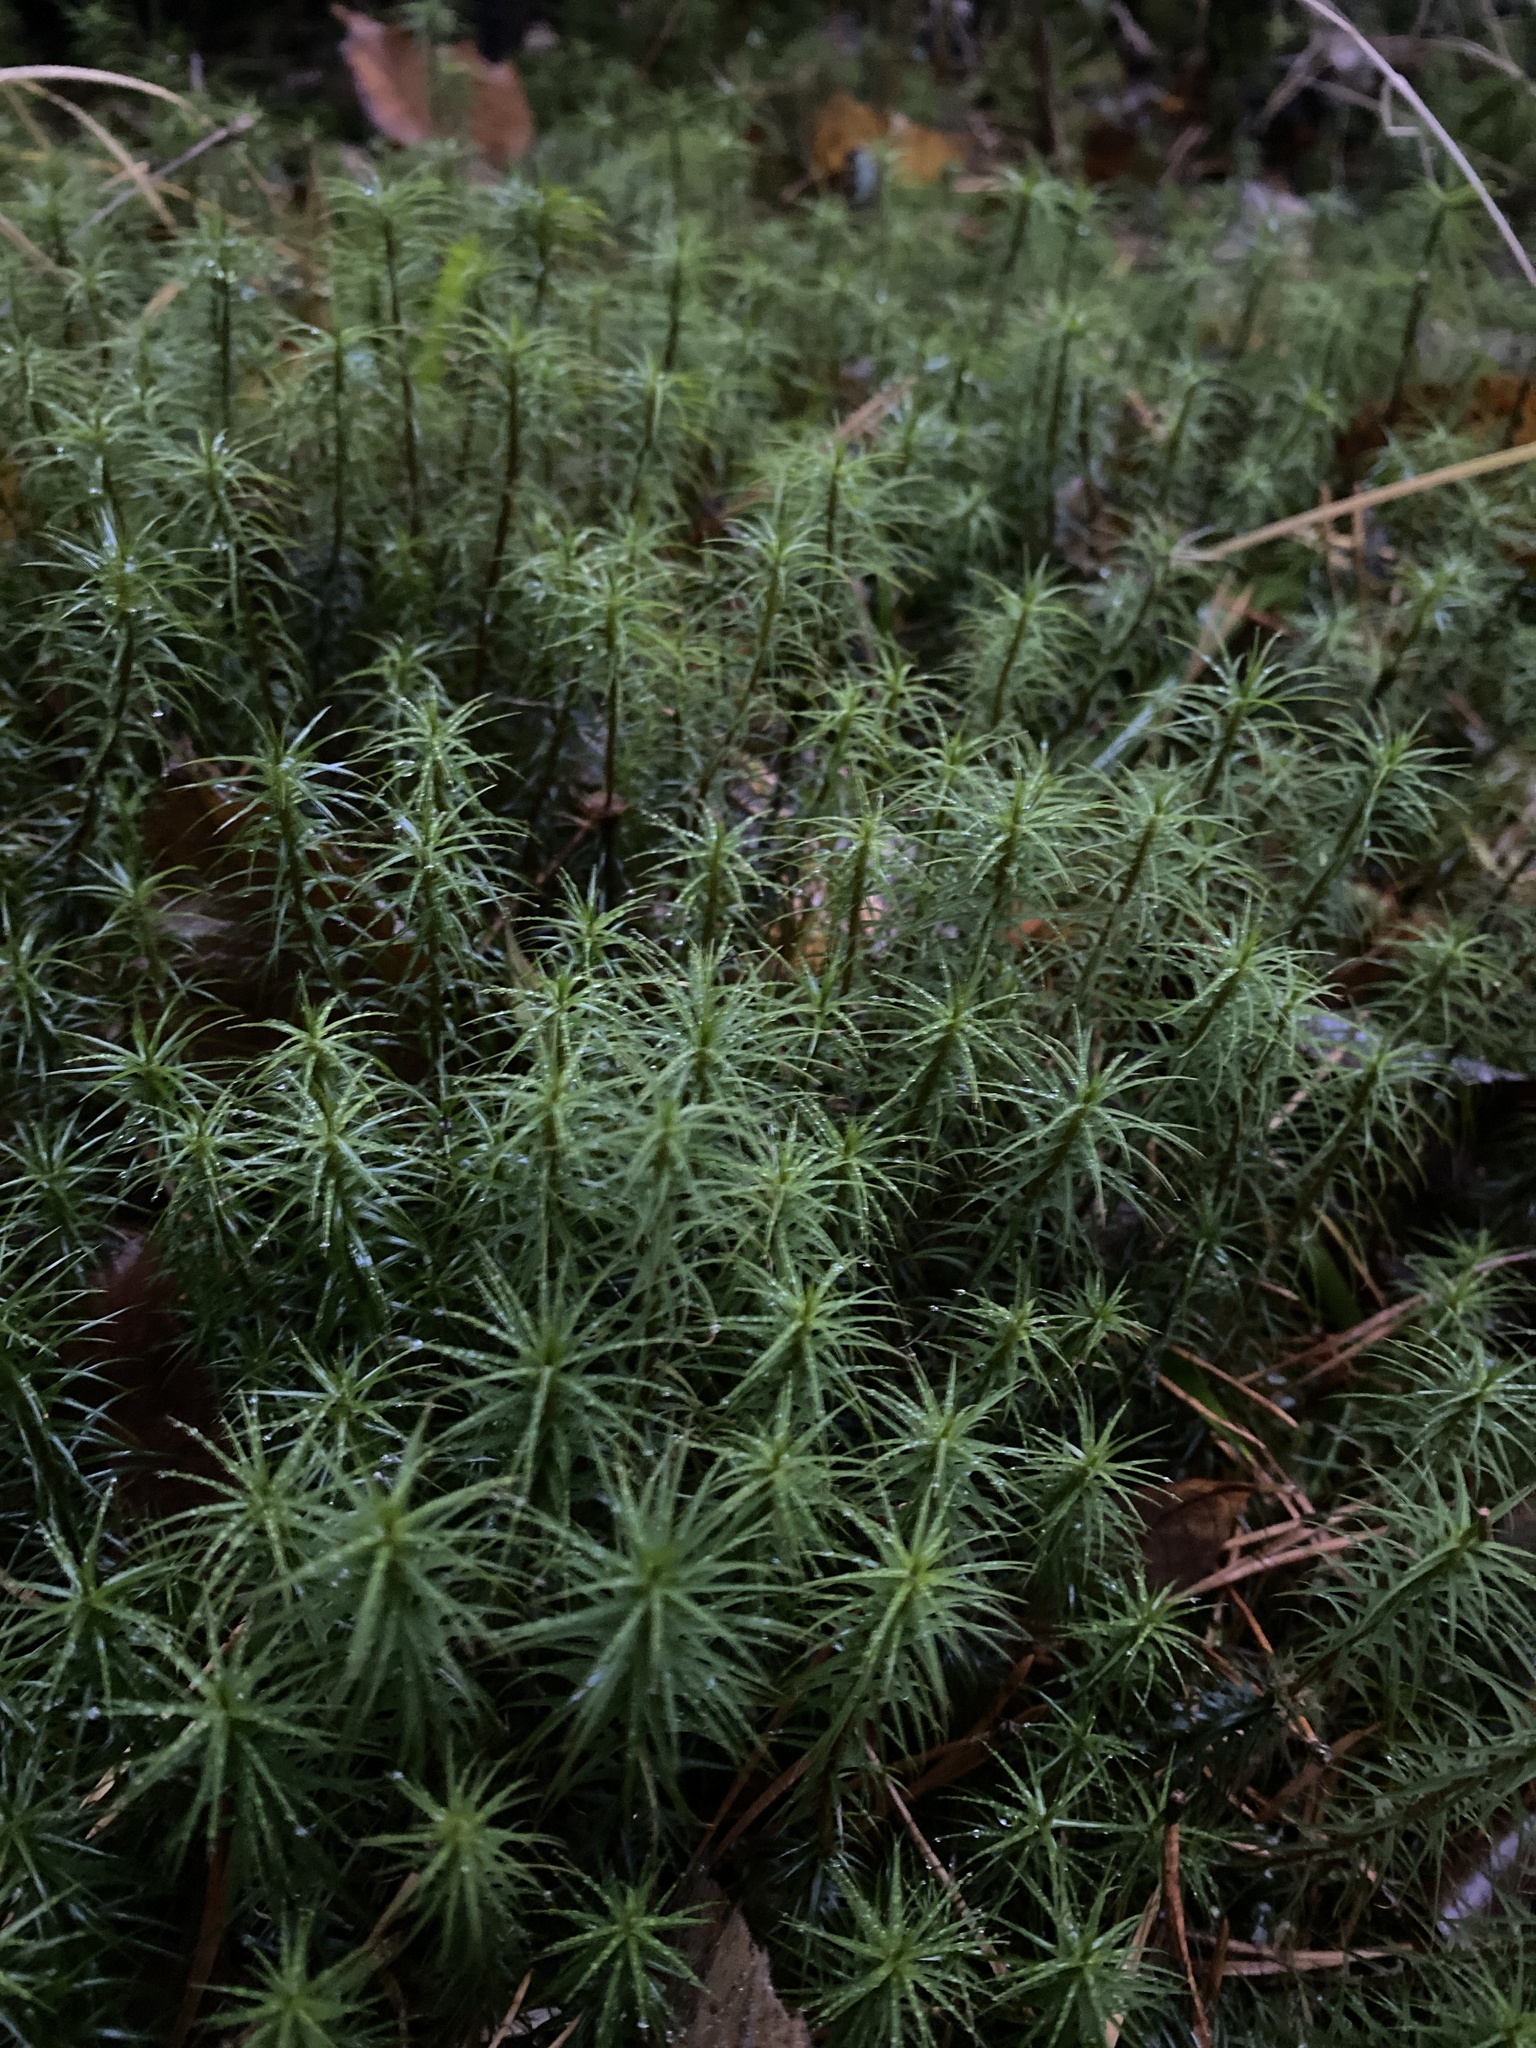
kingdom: Plantae
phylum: Bryophyta
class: Polytrichopsida
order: Polytrichales
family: Polytrichaceae
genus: Polytrichum
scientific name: Polytrichum commune
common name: Common haircap
